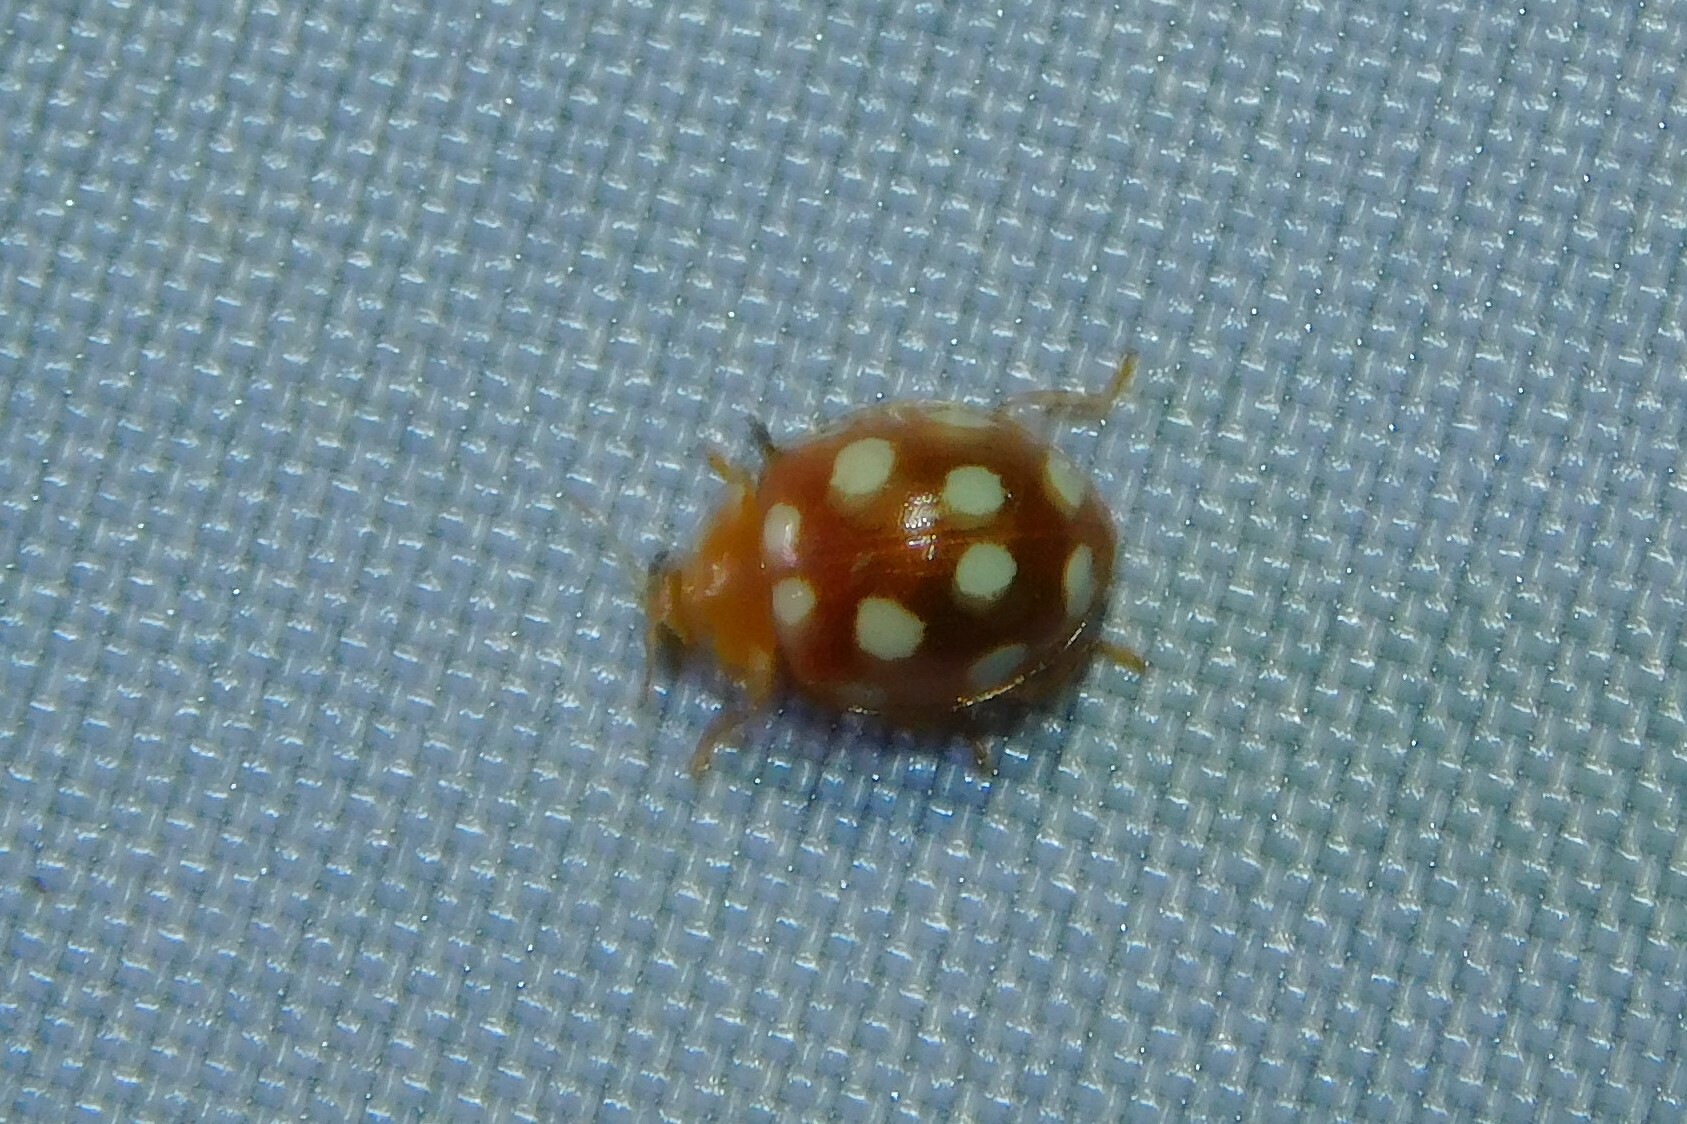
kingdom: Animalia
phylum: Arthropoda
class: Insecta
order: Coleoptera
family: Coccinellidae
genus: Vibidia
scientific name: Vibidia duodecimguttata
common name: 12-spot ladybird
